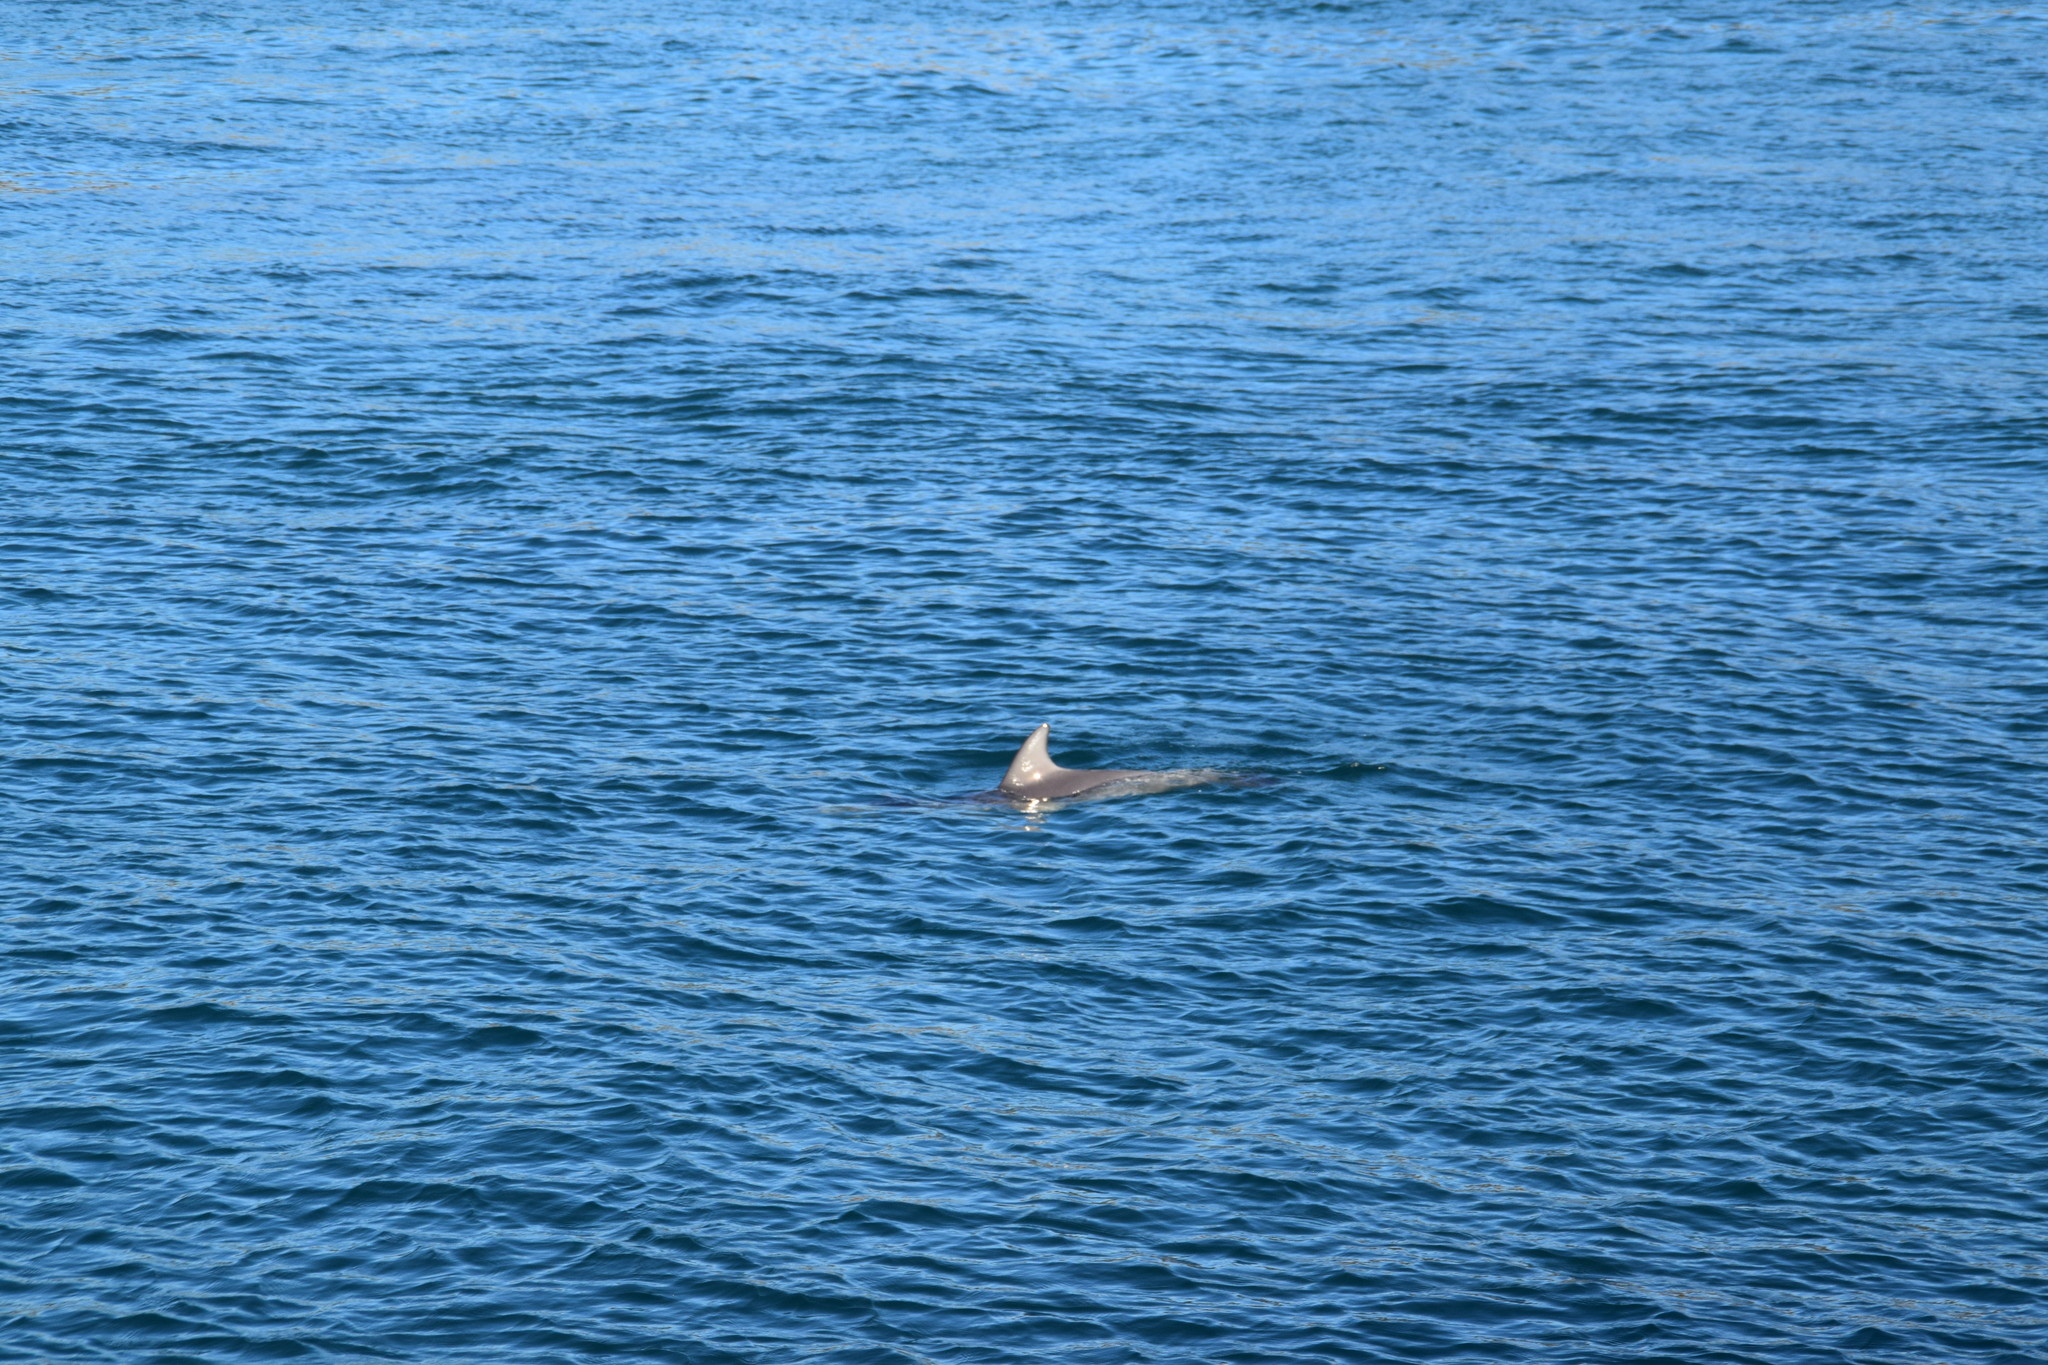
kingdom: Animalia
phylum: Chordata
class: Mammalia
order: Cetacea
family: Delphinidae
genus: Tursiops
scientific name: Tursiops aduncus
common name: Indo-pacific bottlenose dolphin
